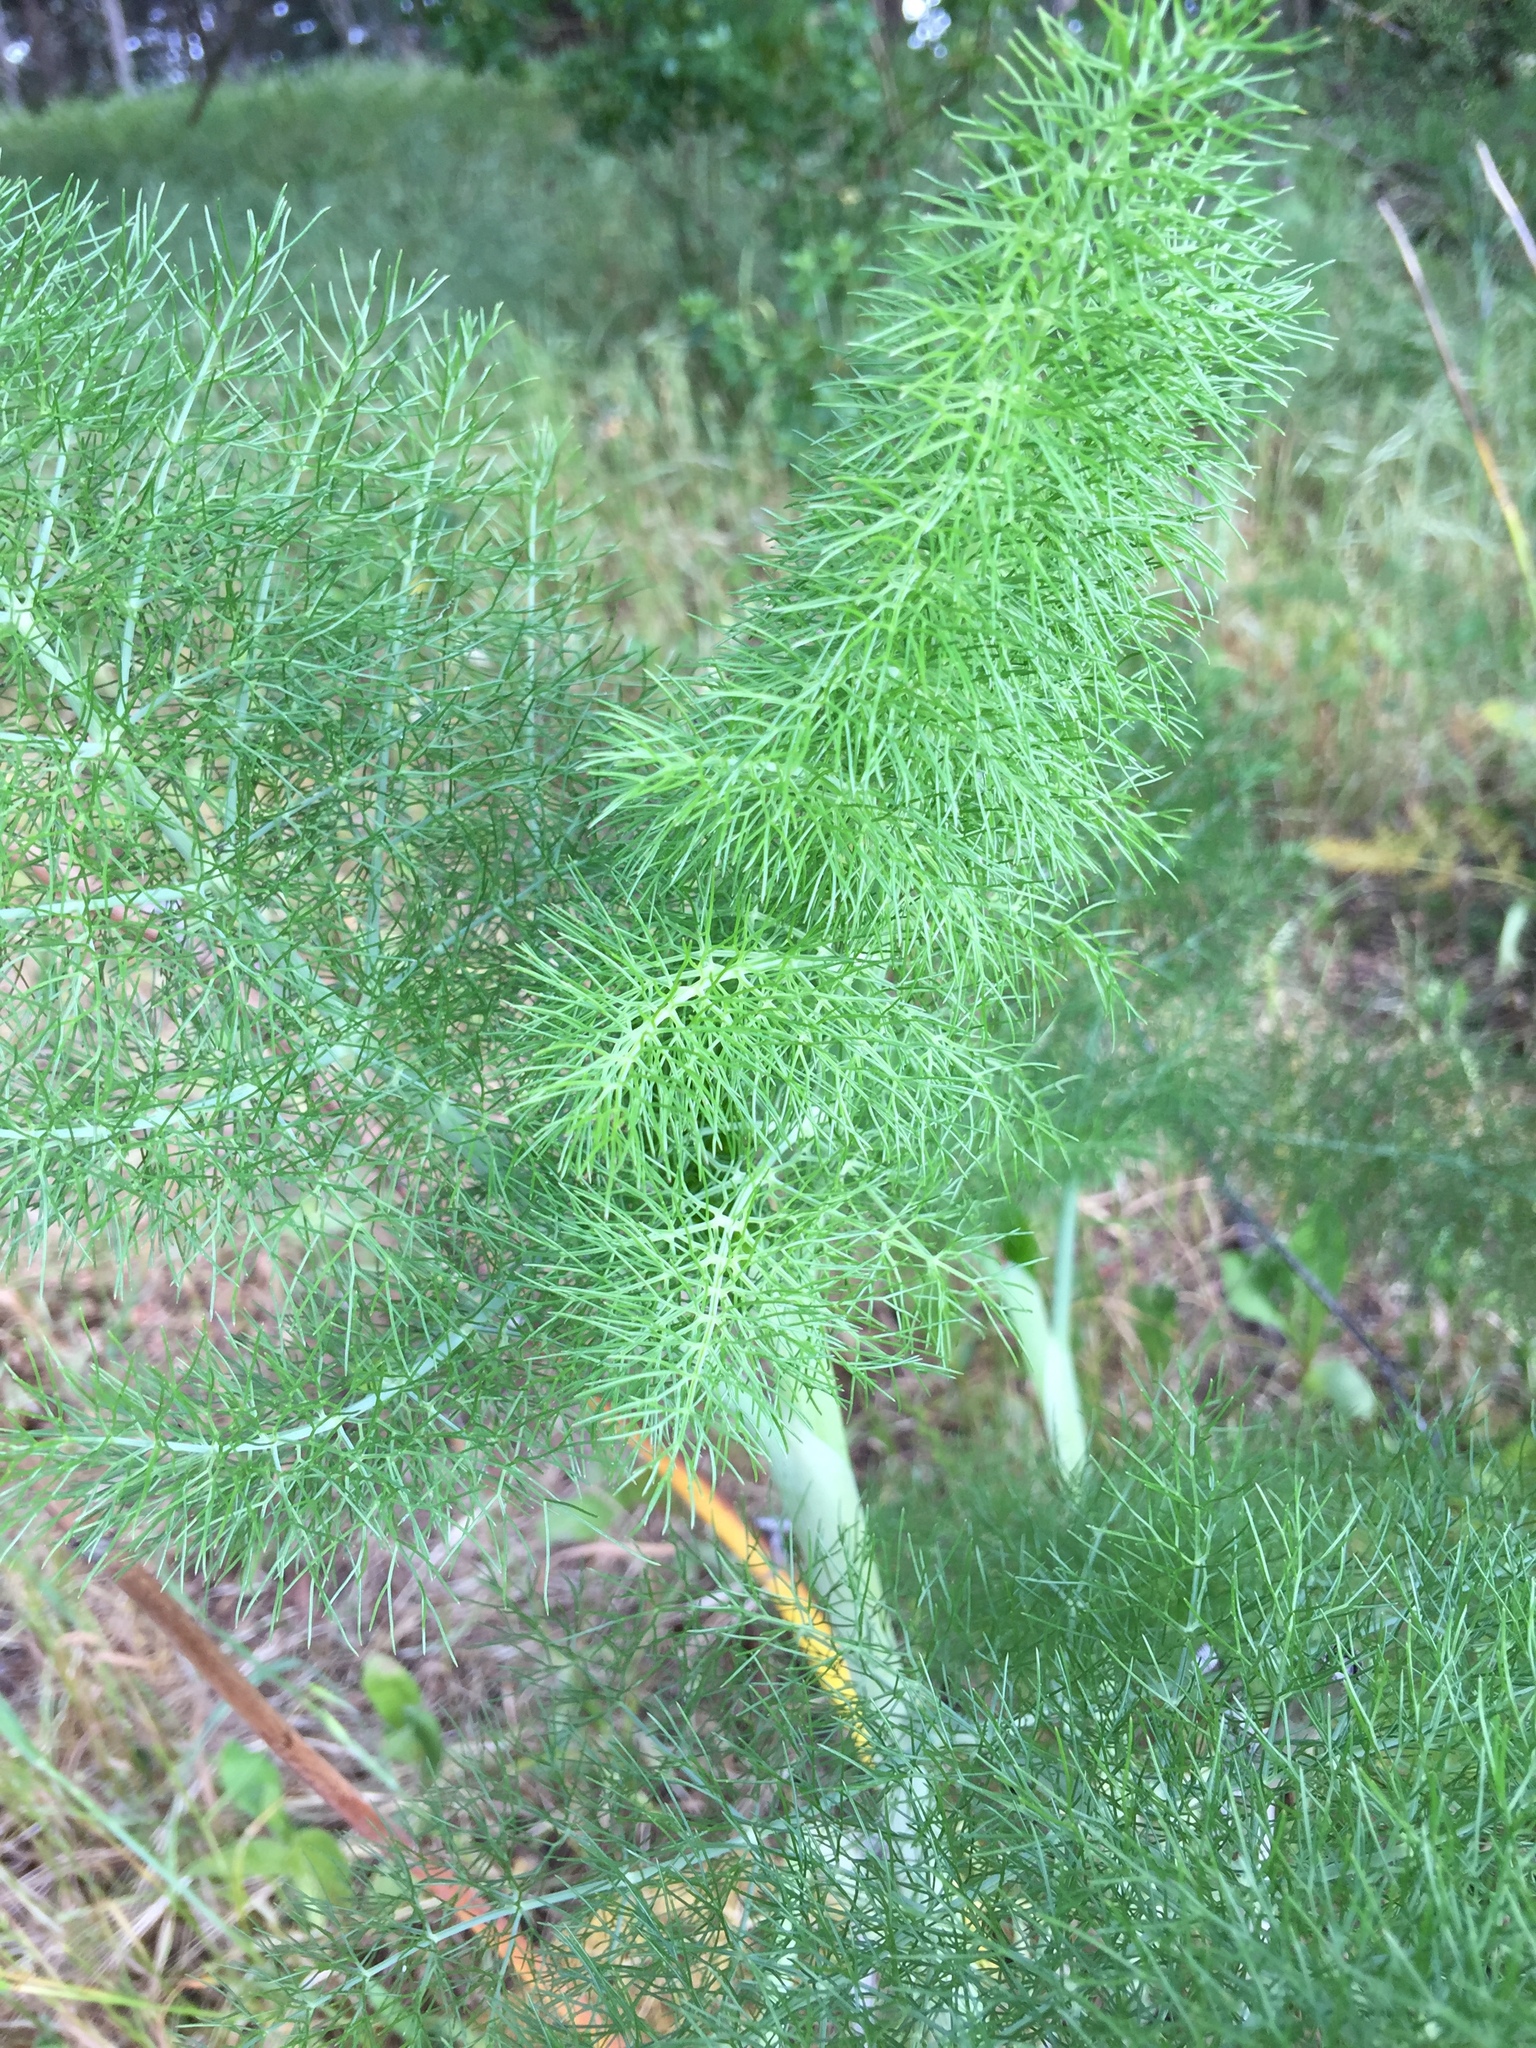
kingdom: Plantae
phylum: Tracheophyta
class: Magnoliopsida
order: Apiales
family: Apiaceae
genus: Foeniculum
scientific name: Foeniculum vulgare
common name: Fennel
